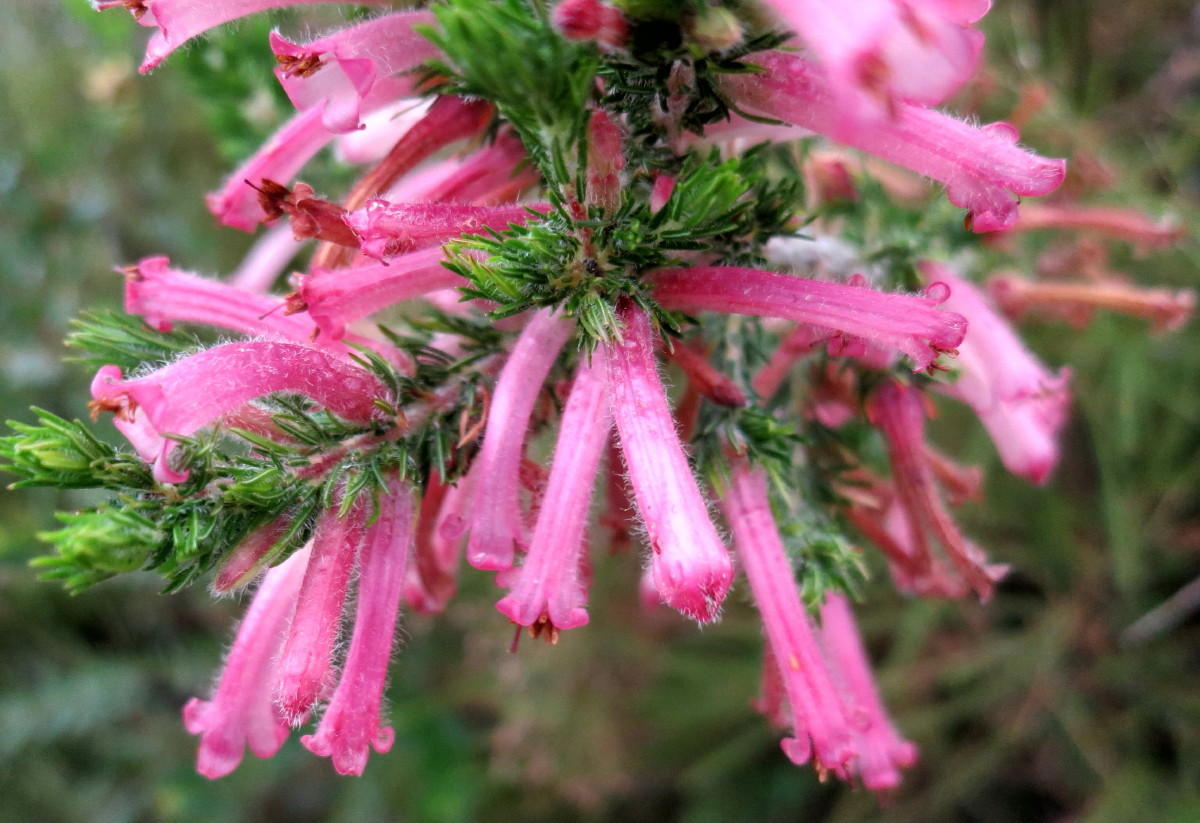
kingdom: Plantae
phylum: Tracheophyta
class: Magnoliopsida
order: Ericales
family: Ericaceae
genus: Erica
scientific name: Erica curviflora
